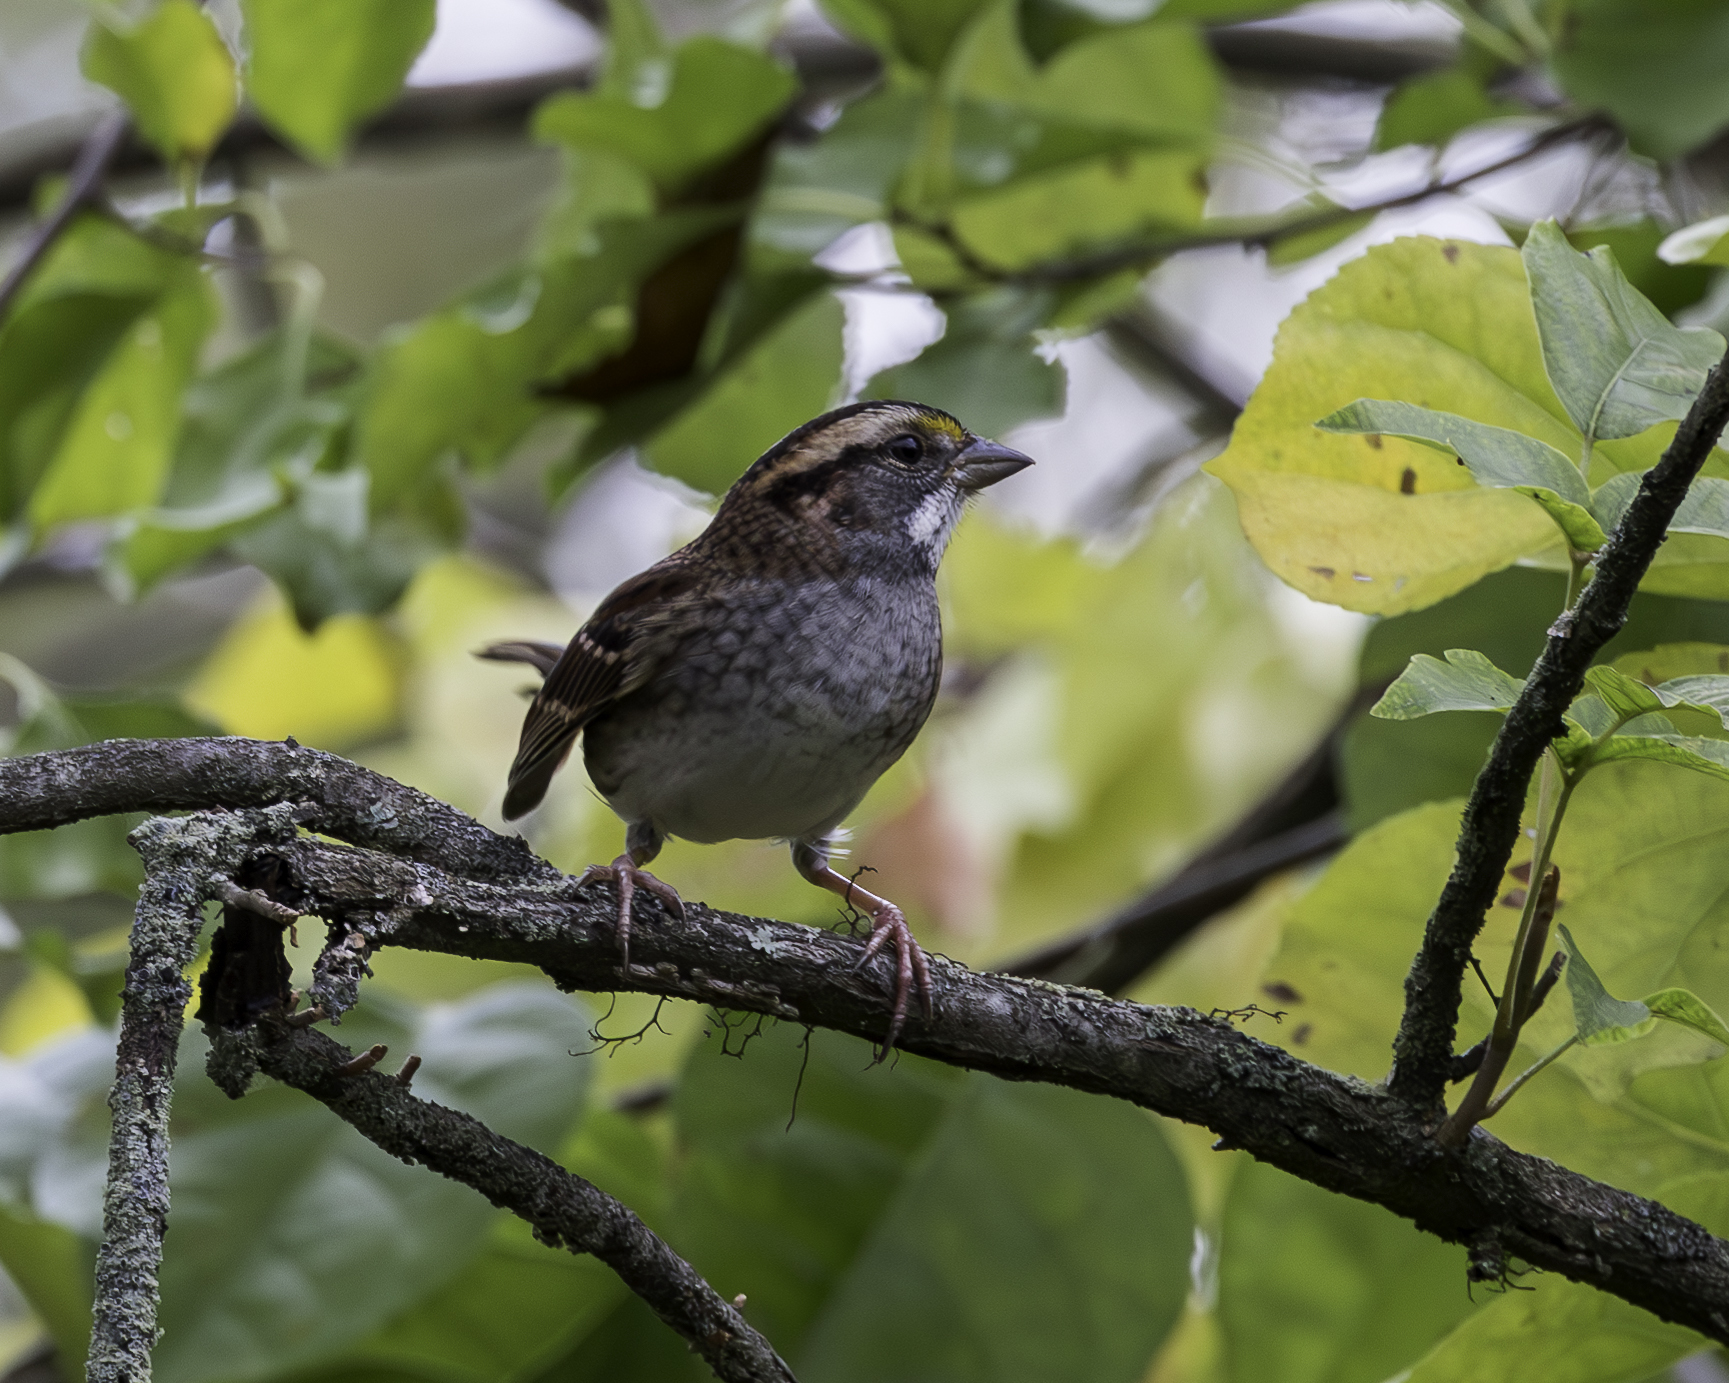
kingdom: Animalia
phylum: Chordata
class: Aves
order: Passeriformes
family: Passerellidae
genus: Zonotrichia
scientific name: Zonotrichia albicollis
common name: White-throated sparrow
